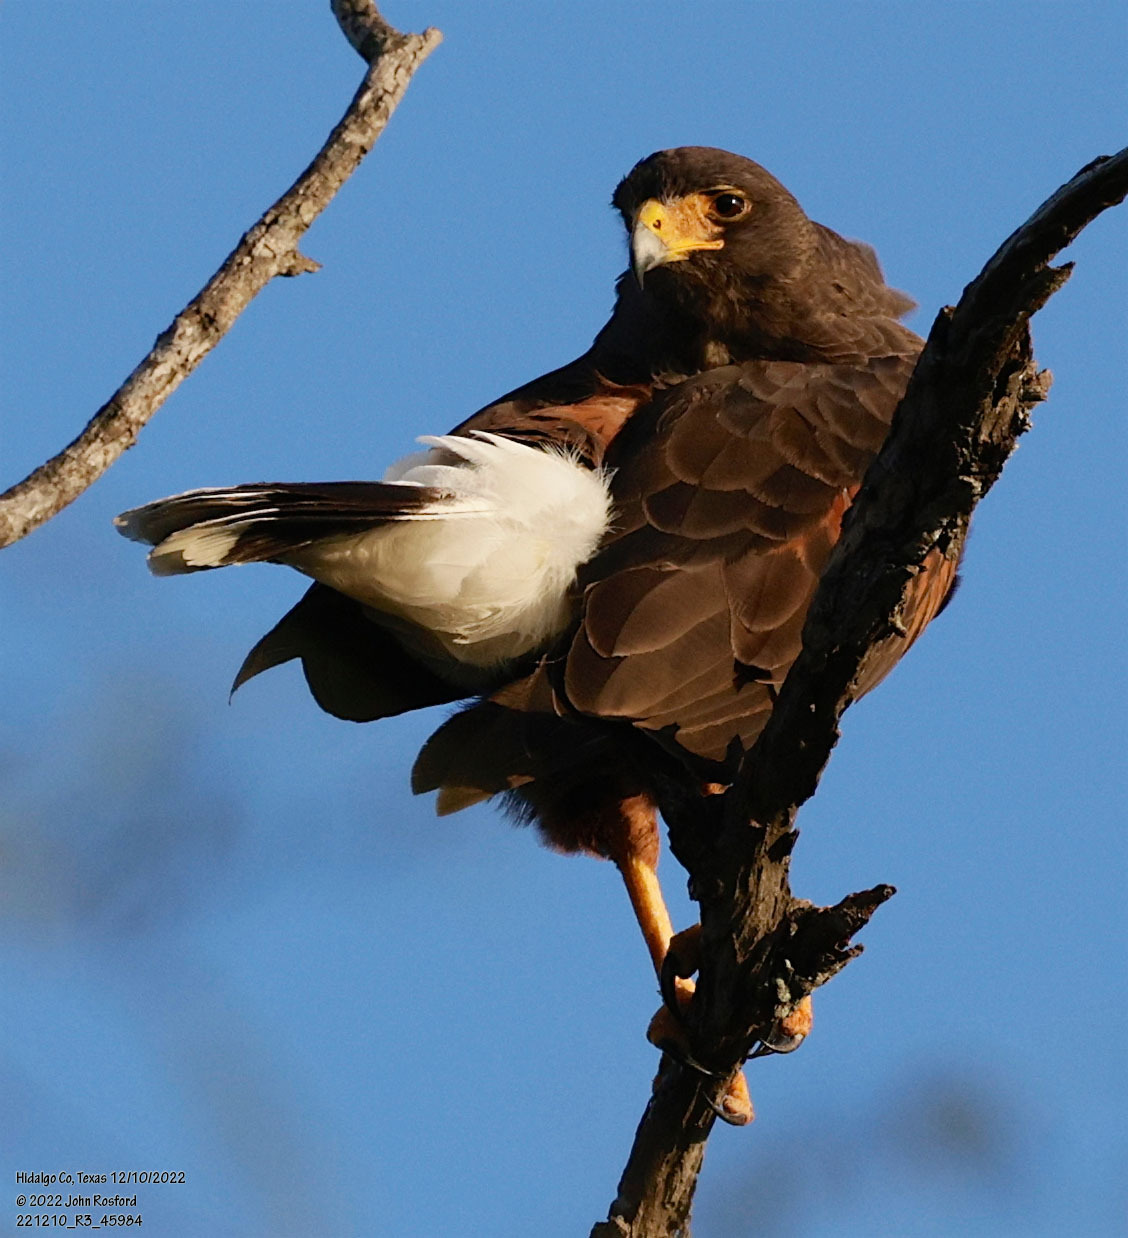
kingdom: Animalia
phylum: Chordata
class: Aves
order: Accipitriformes
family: Accipitridae
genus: Parabuteo
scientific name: Parabuteo unicinctus
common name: Harris's hawk
